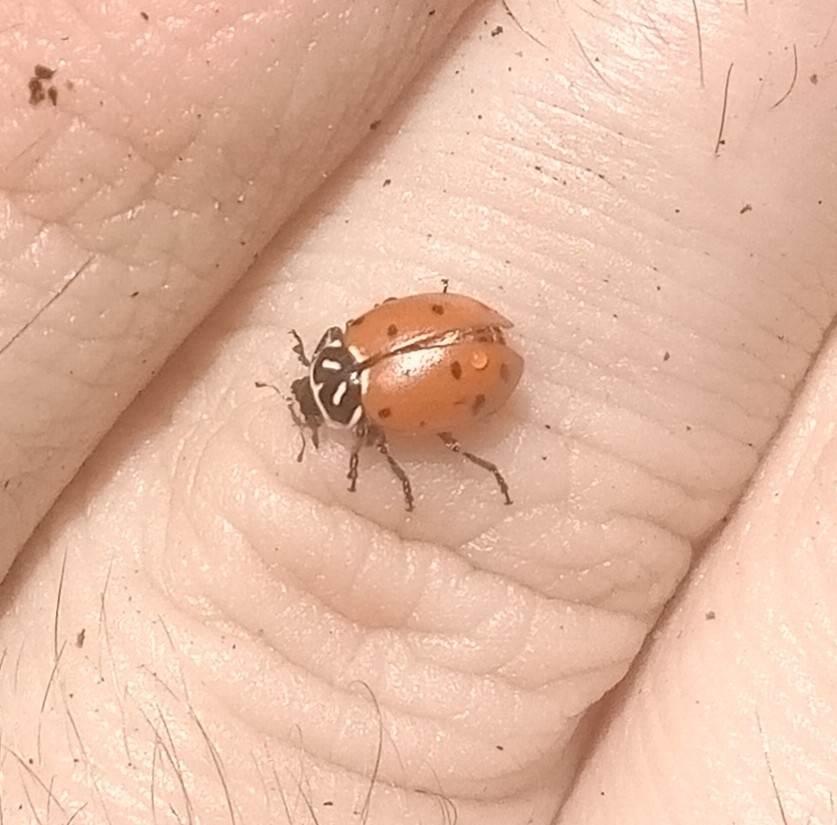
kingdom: Animalia
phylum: Arthropoda
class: Insecta
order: Coleoptera
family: Coccinellidae
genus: Hippodamia
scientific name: Hippodamia convergens
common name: Convergent lady beetle
